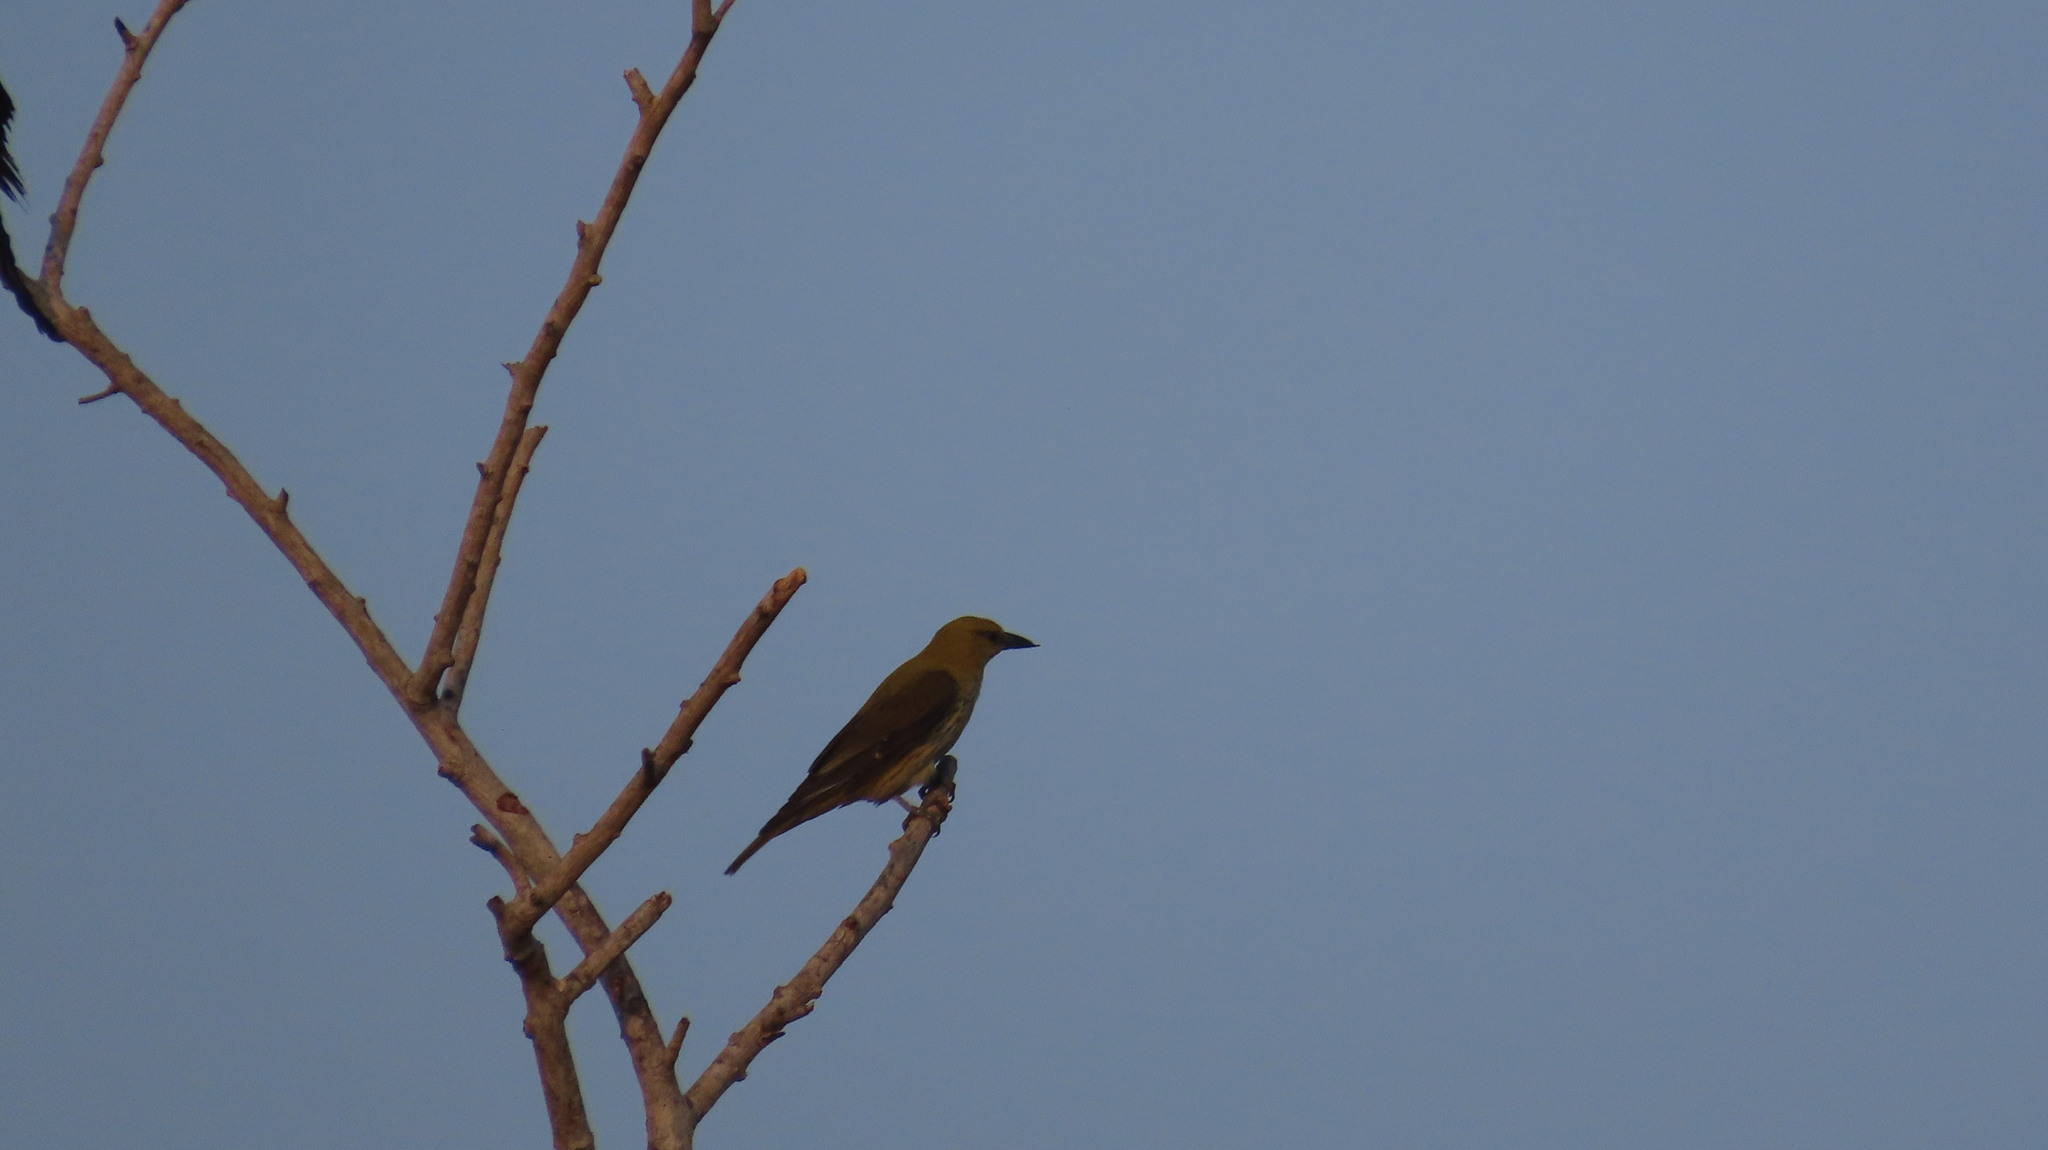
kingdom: Animalia
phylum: Chordata
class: Aves
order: Passeriformes
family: Oriolidae
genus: Oriolus
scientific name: Oriolus kundoo
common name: Indian golden oriole
